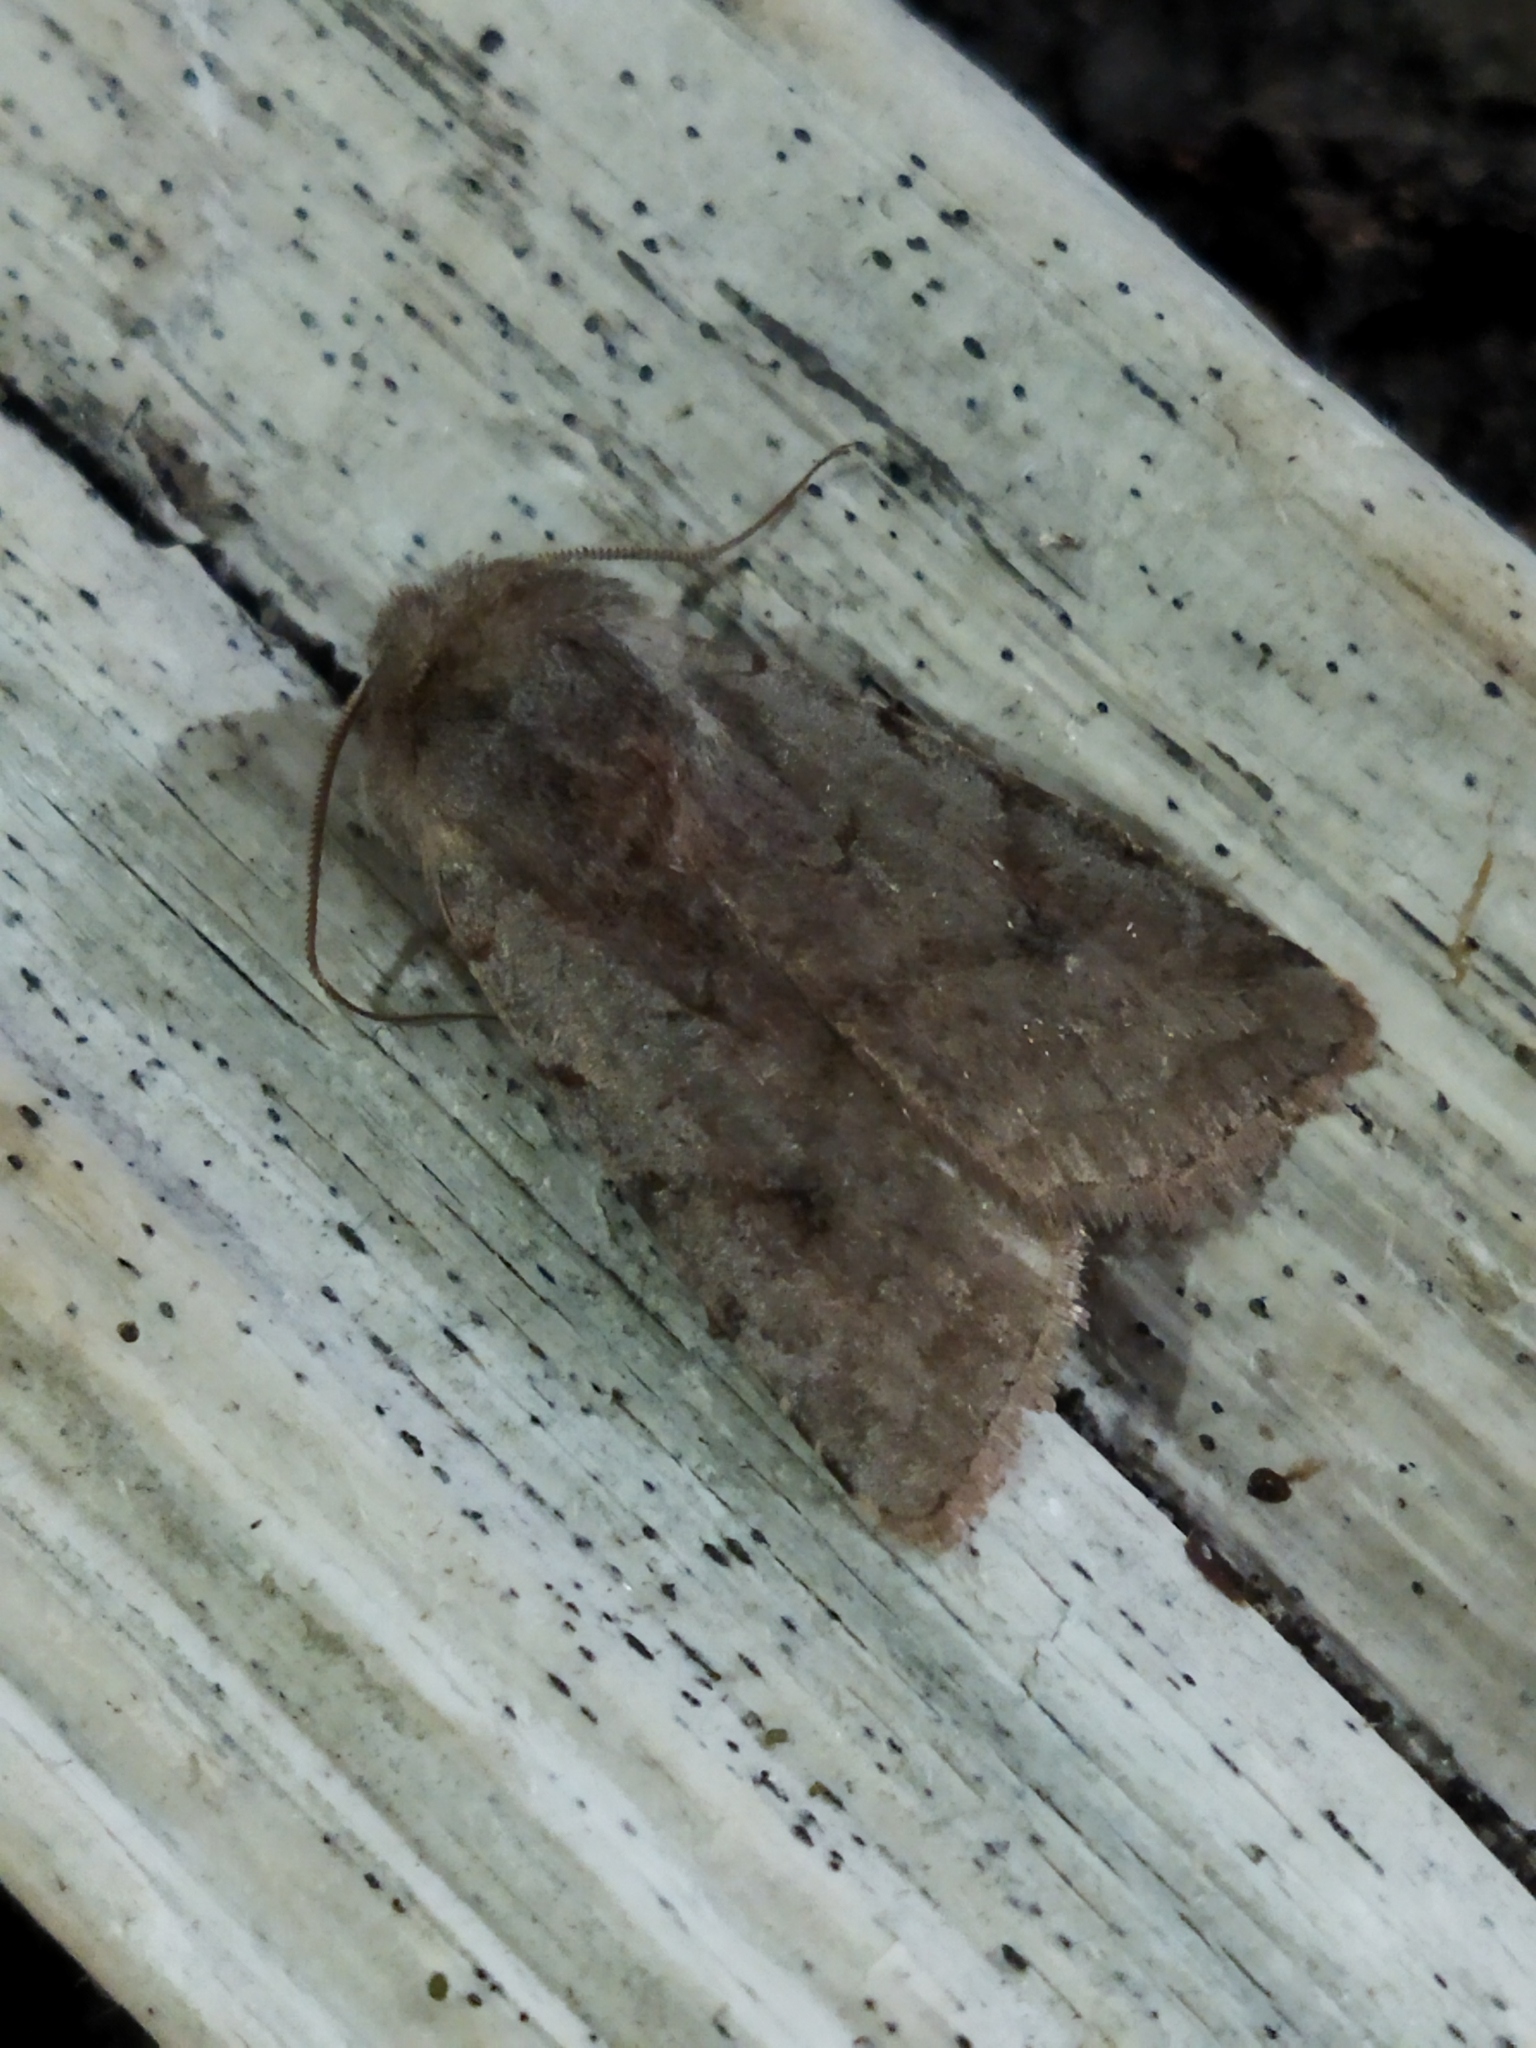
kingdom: Animalia
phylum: Arthropoda
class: Insecta
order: Lepidoptera
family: Noctuidae
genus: Cerastis
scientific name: Cerastis rubricosa
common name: Red chestnut
